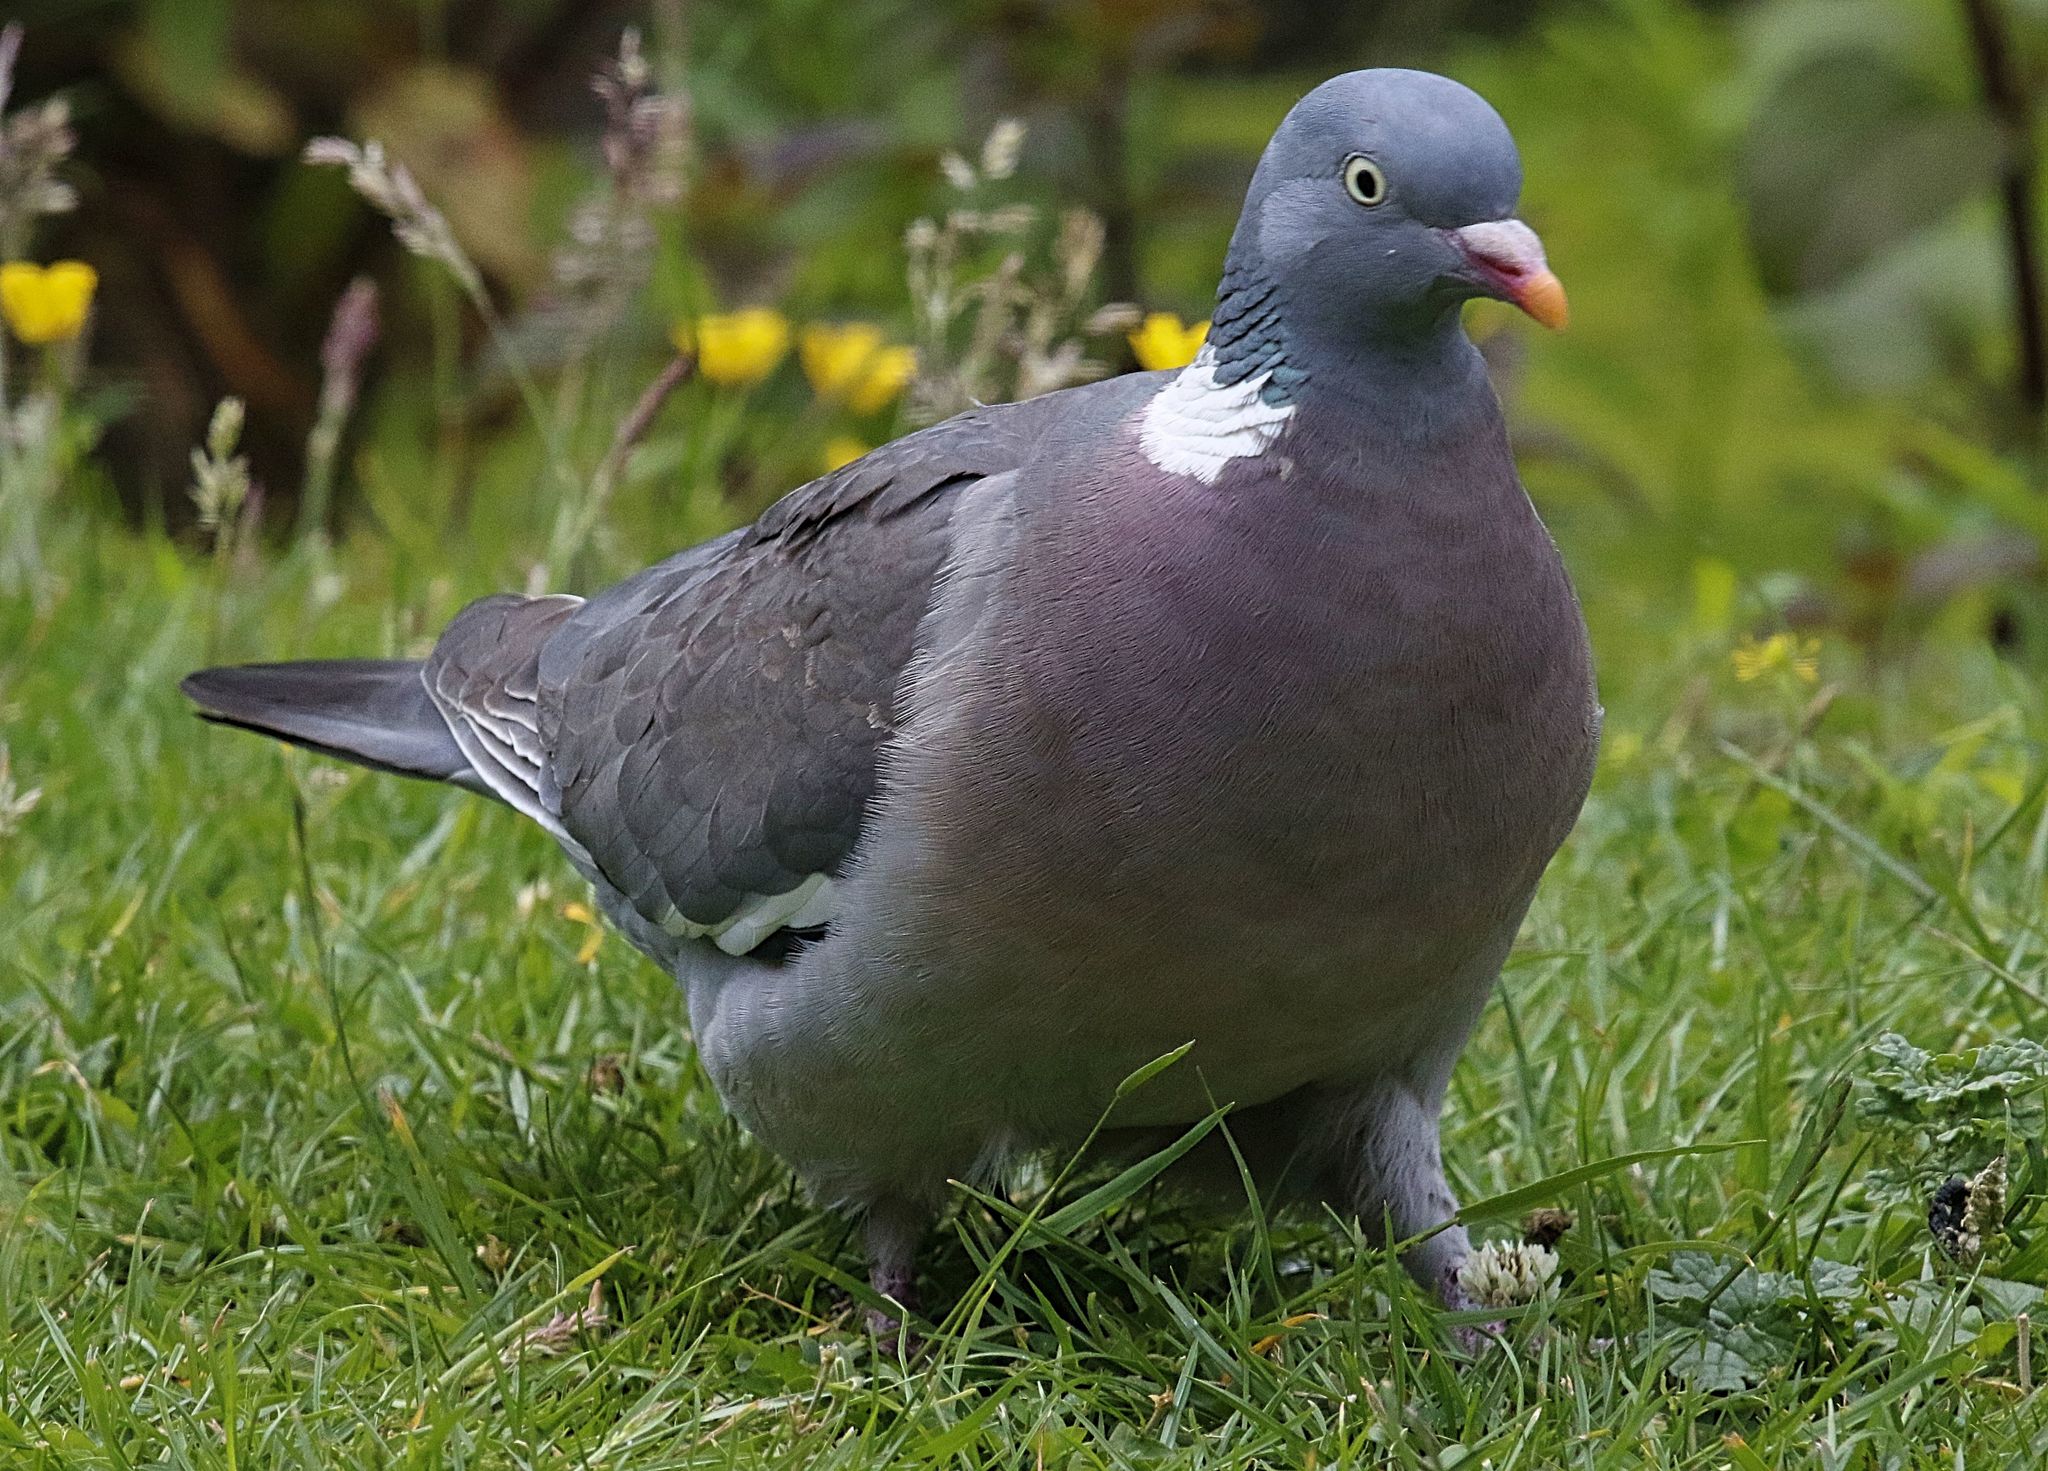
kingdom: Animalia
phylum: Chordata
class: Aves
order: Columbiformes
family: Columbidae
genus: Columba
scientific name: Columba palumbus
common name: Common wood pigeon
